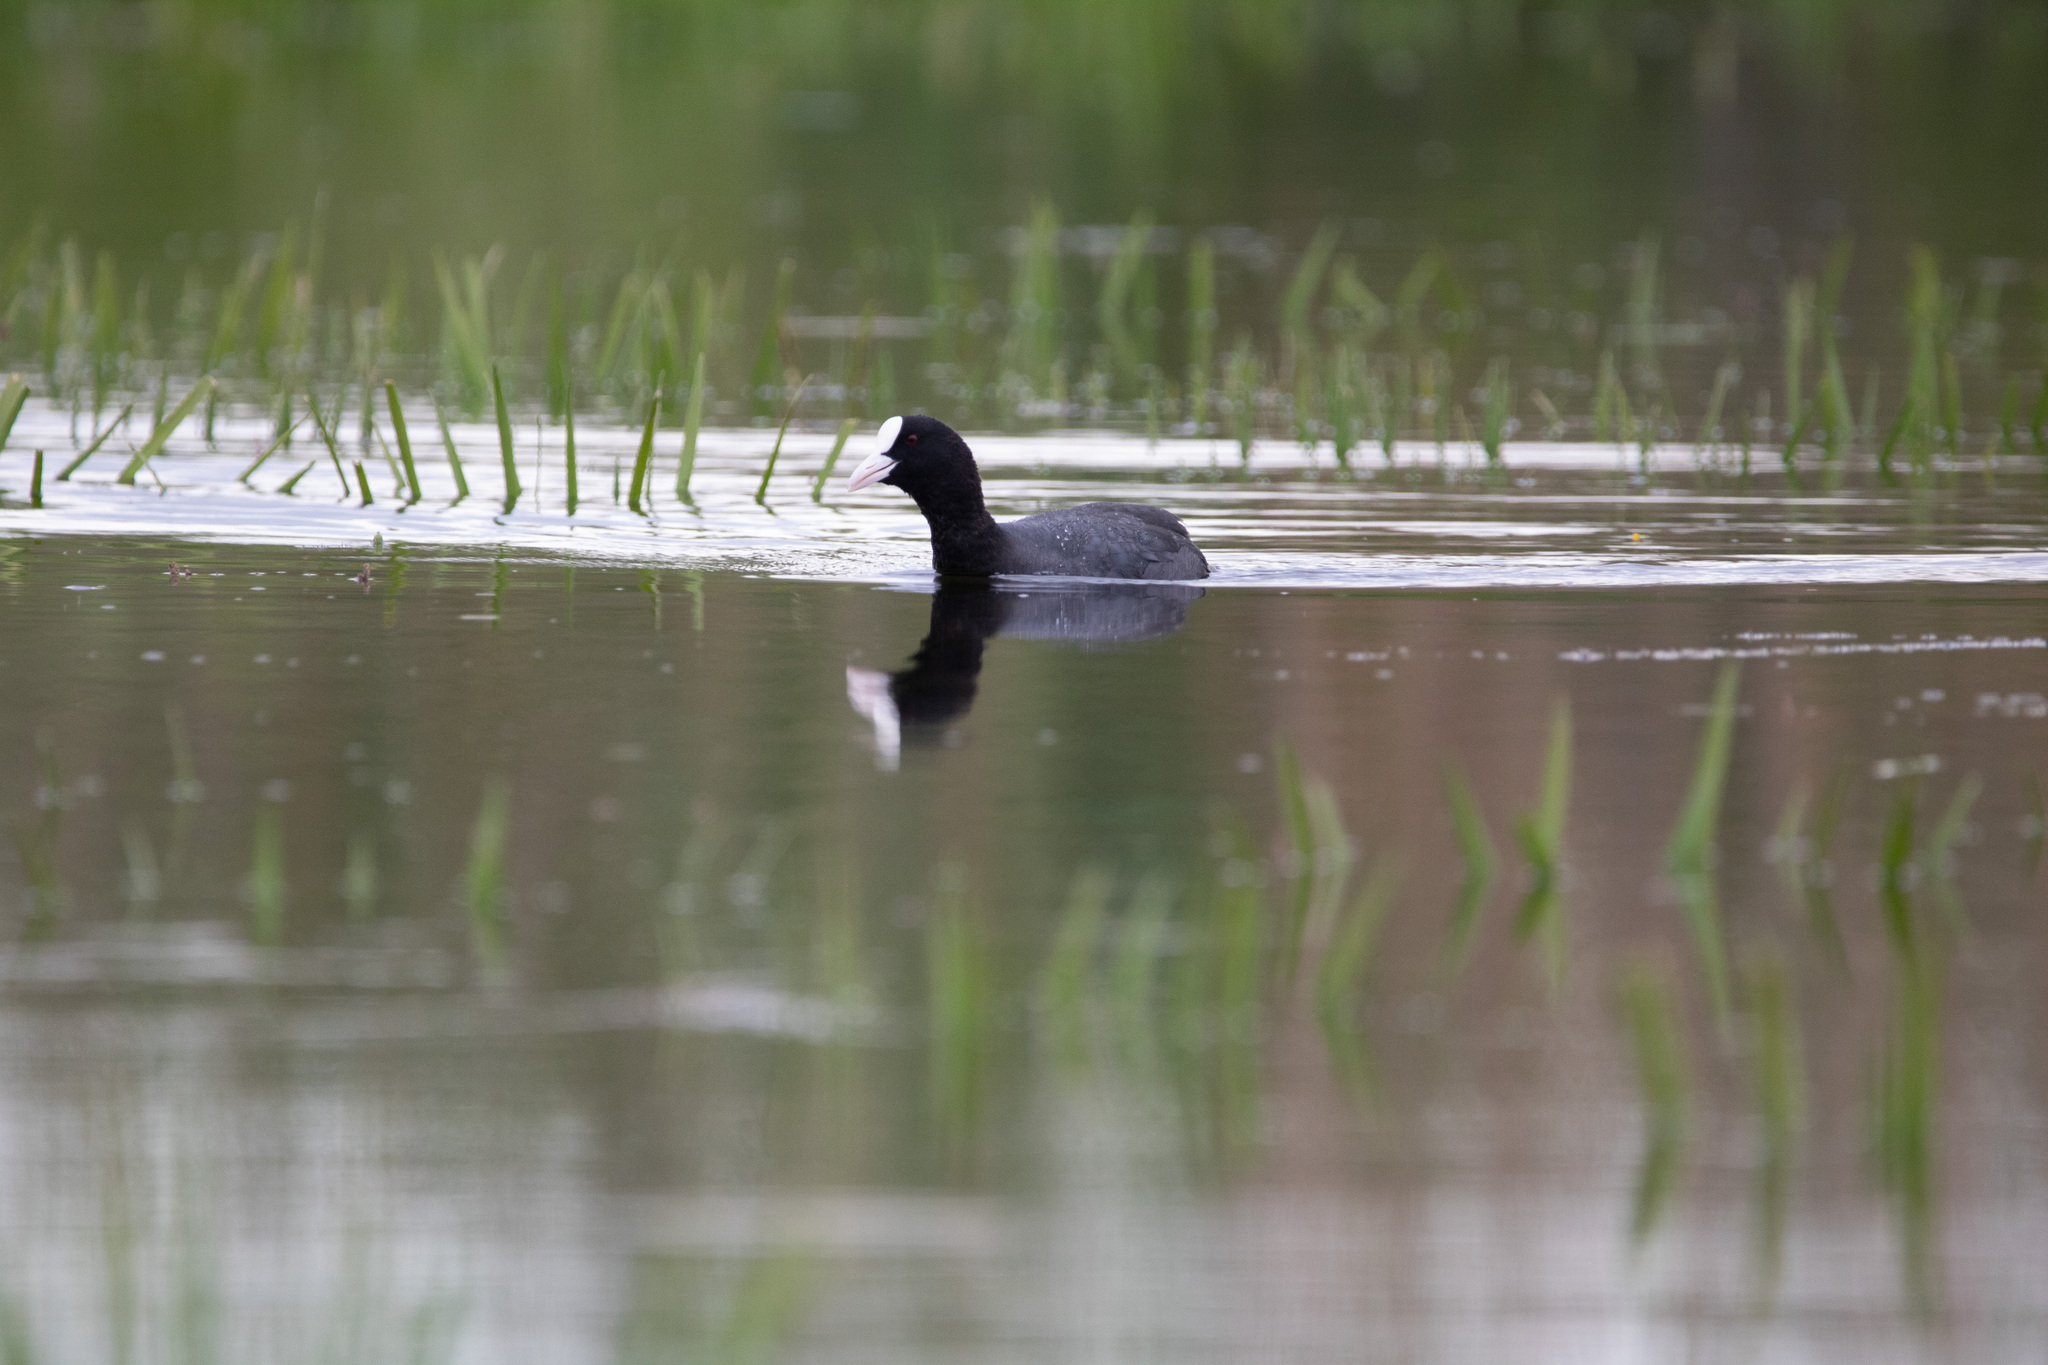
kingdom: Animalia
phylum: Chordata
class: Aves
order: Gruiformes
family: Rallidae
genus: Fulica
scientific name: Fulica atra
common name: Eurasian coot
